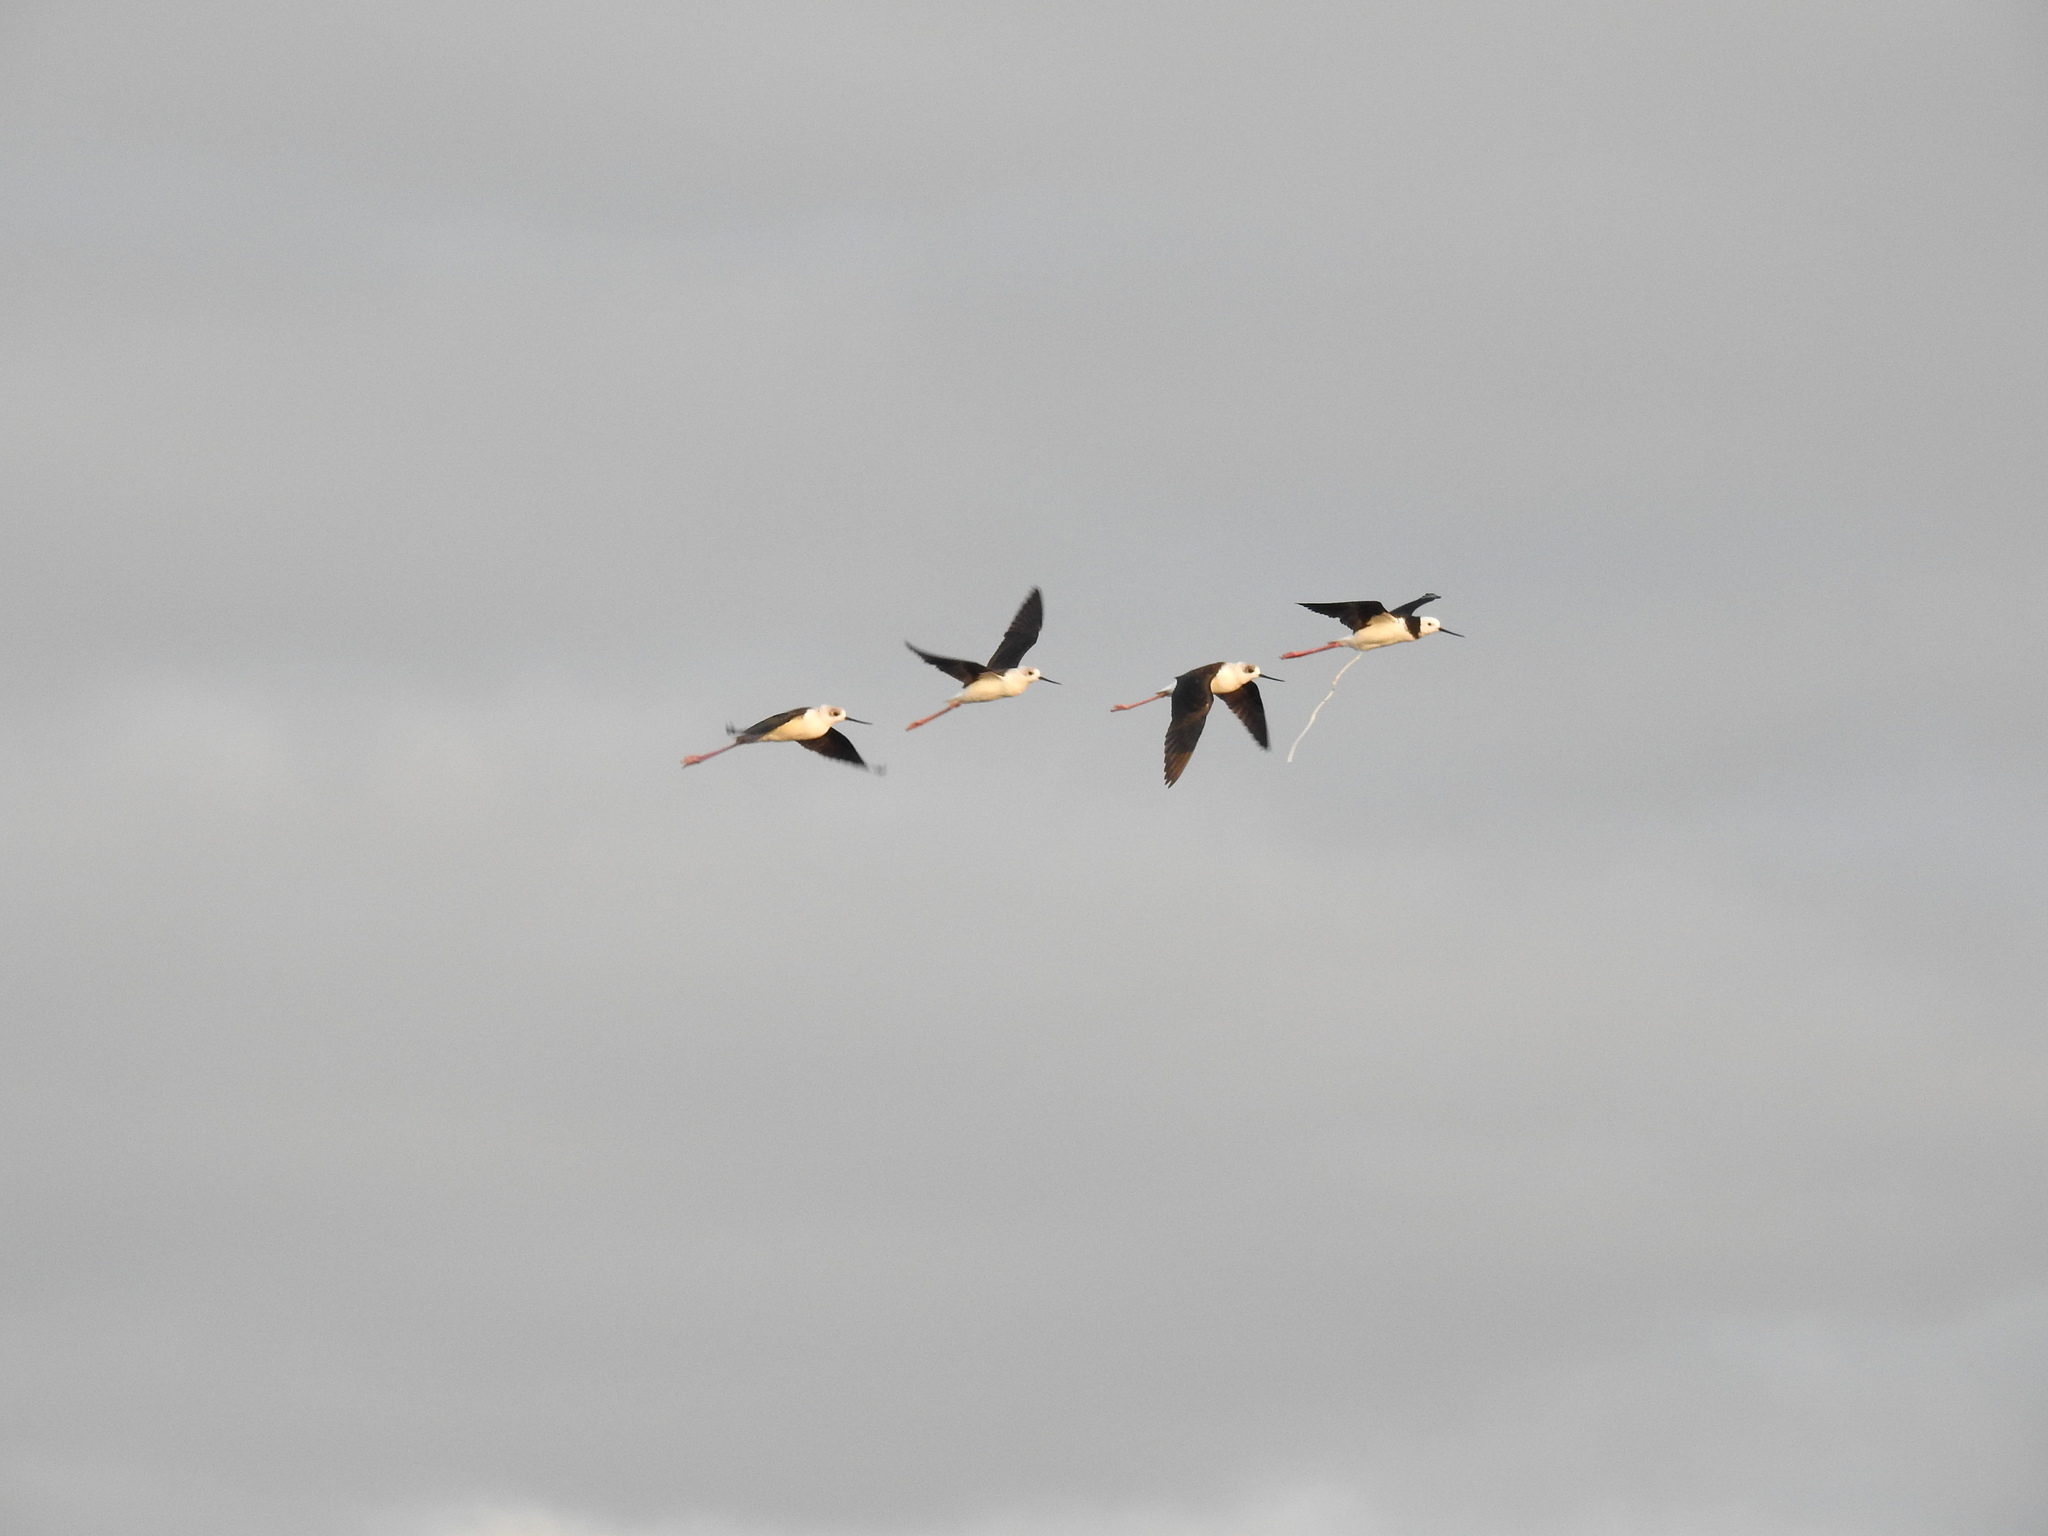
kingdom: Animalia
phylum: Chordata
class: Aves
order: Charadriiformes
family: Recurvirostridae
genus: Himantopus
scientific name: Himantopus leucocephalus
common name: White-headed stilt
